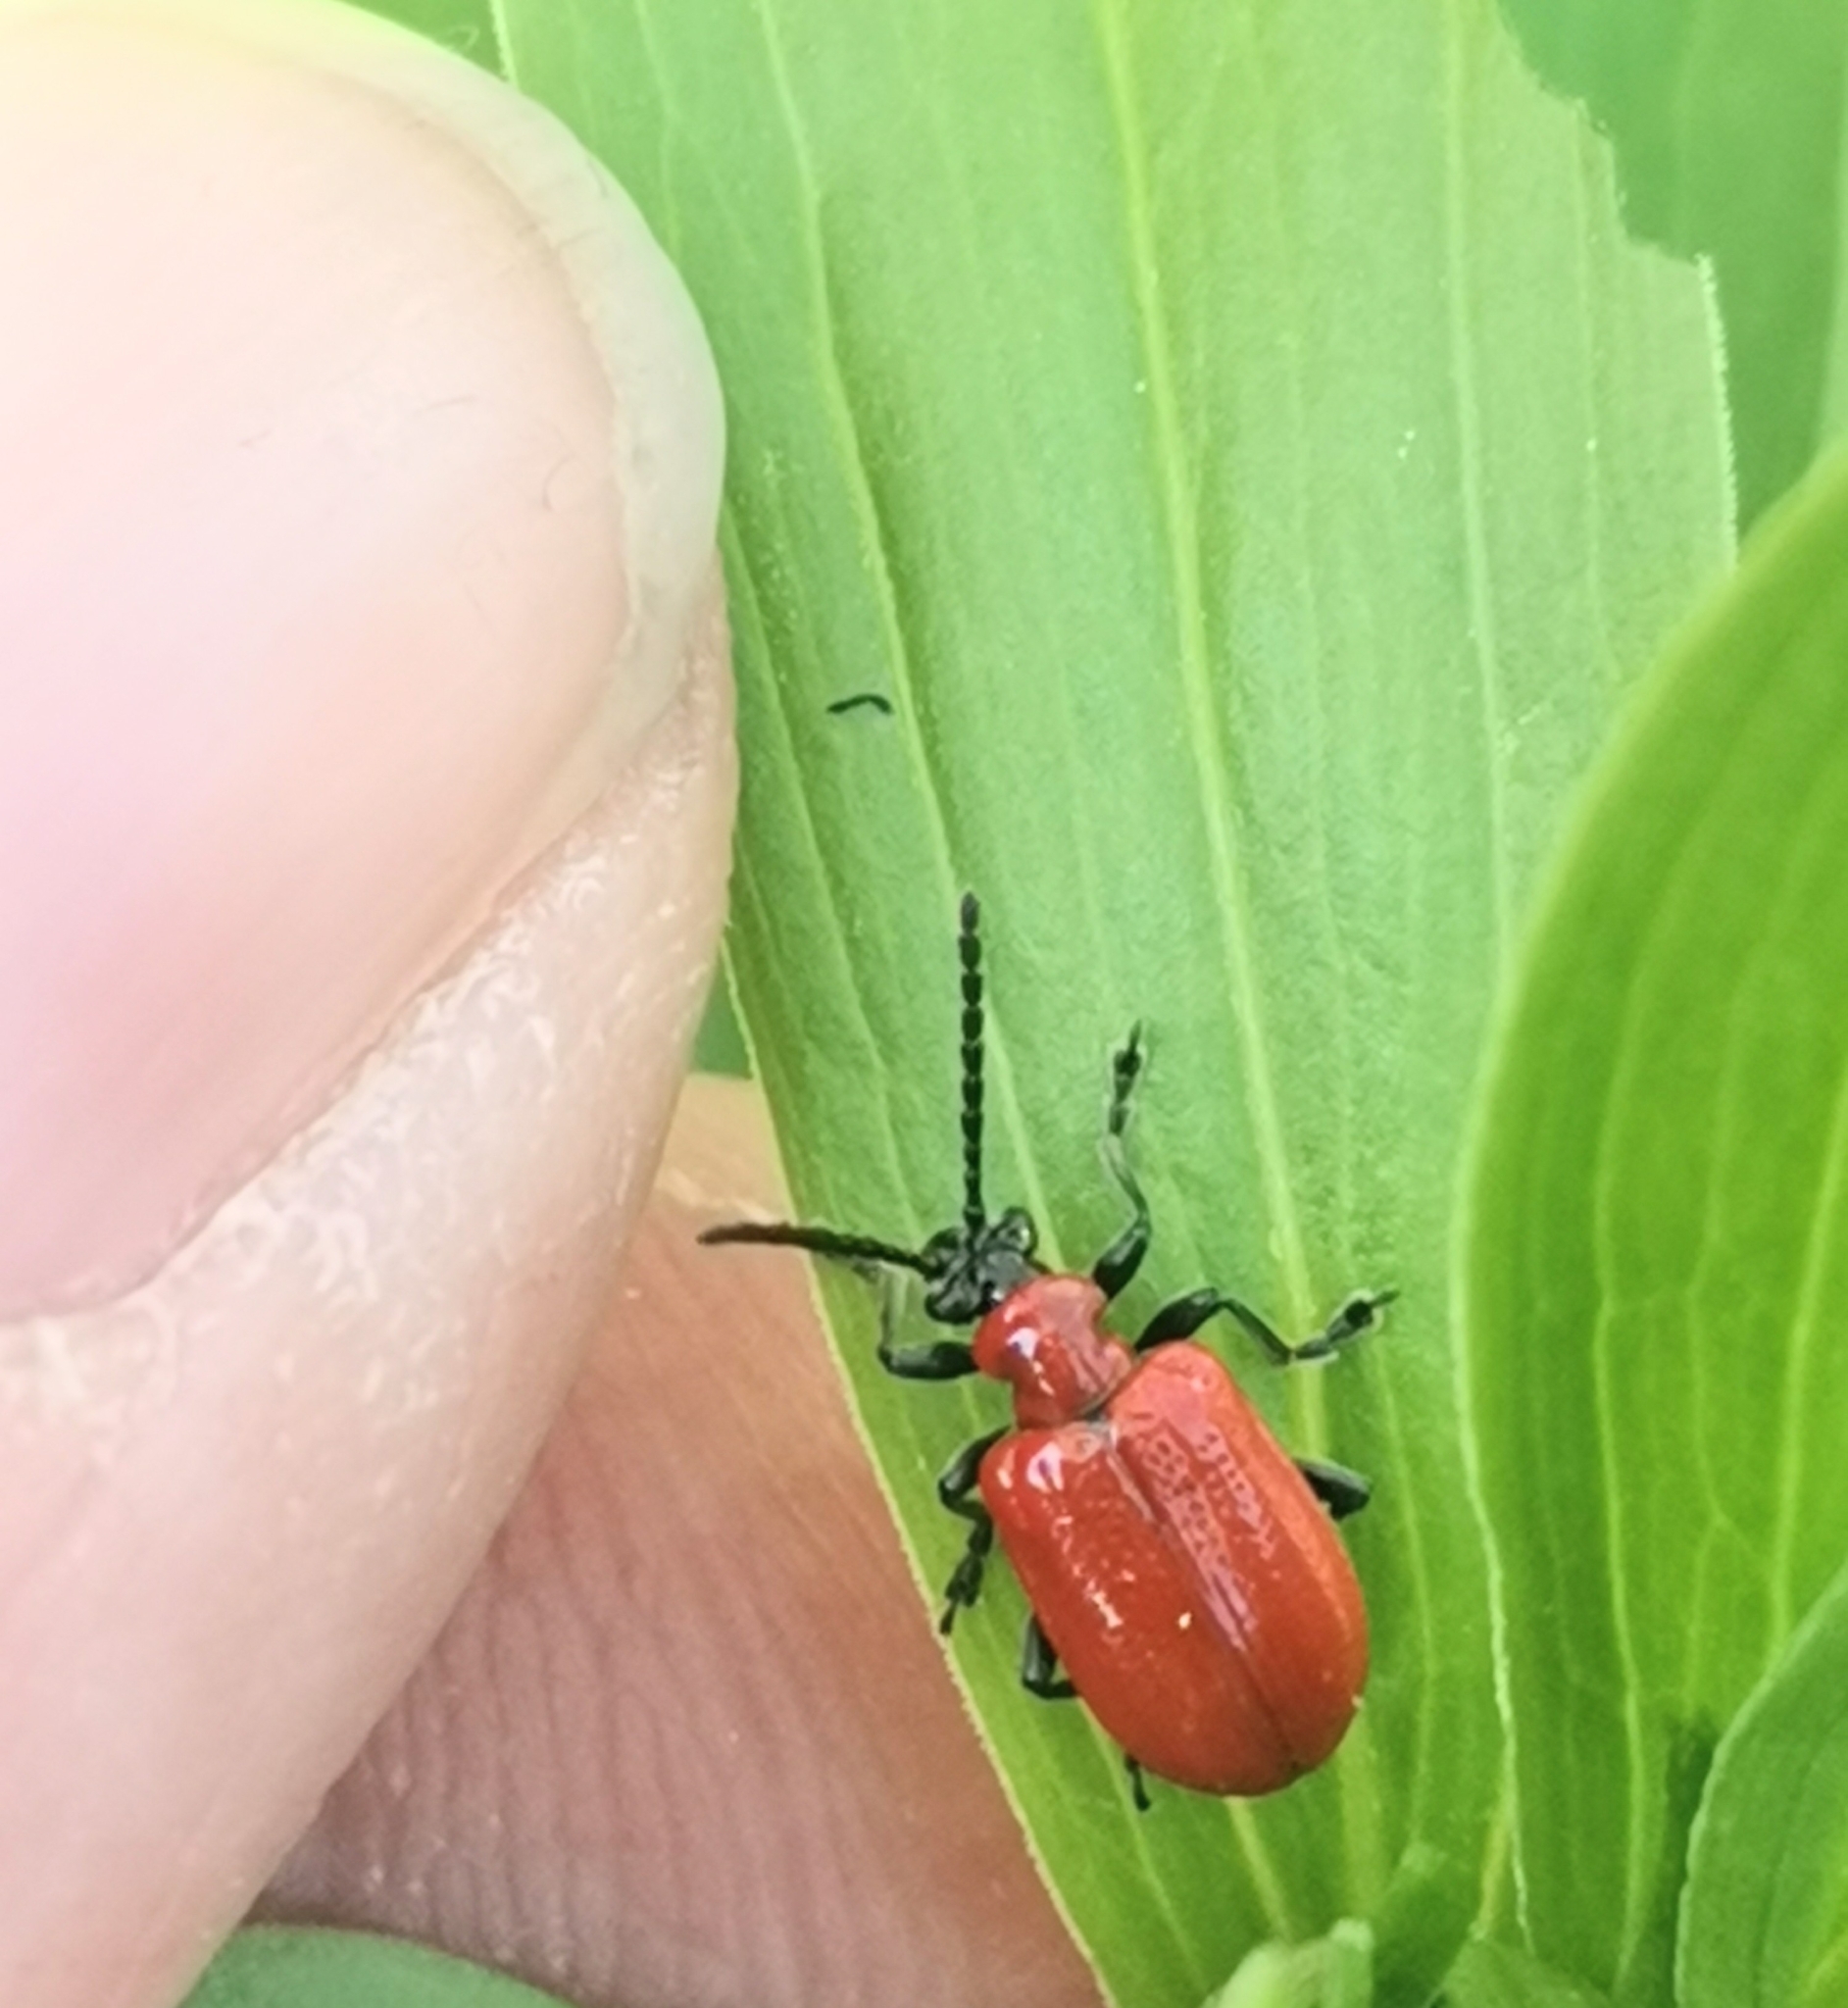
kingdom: Animalia
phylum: Arthropoda
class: Insecta
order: Coleoptera
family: Chrysomelidae
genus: Lilioceris
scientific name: Lilioceris lilii
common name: Lily beetle
